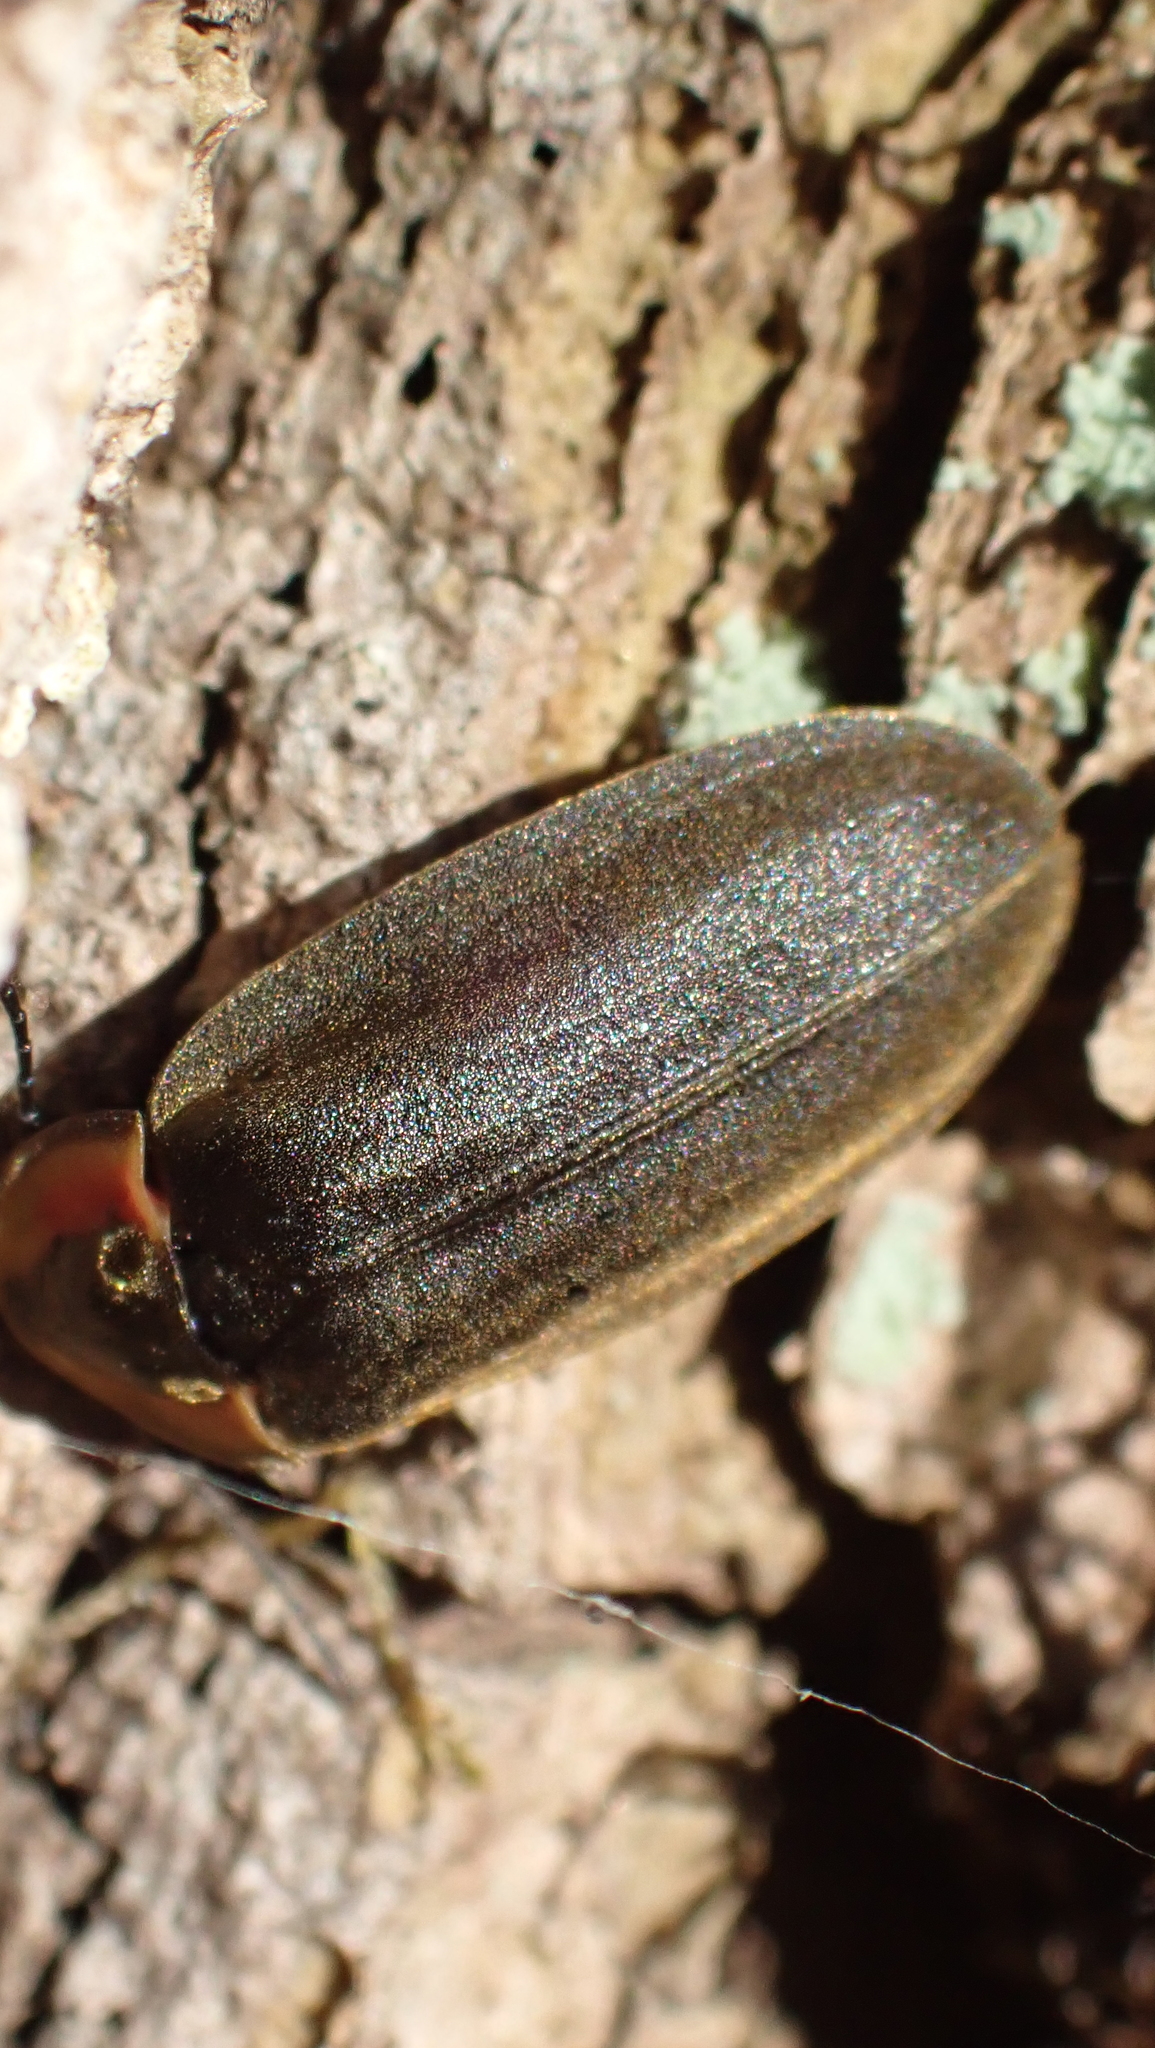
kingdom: Animalia
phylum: Arthropoda
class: Insecta
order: Coleoptera
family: Lampyridae
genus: Photinus
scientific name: Photinus corrusca
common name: Winter firefly
